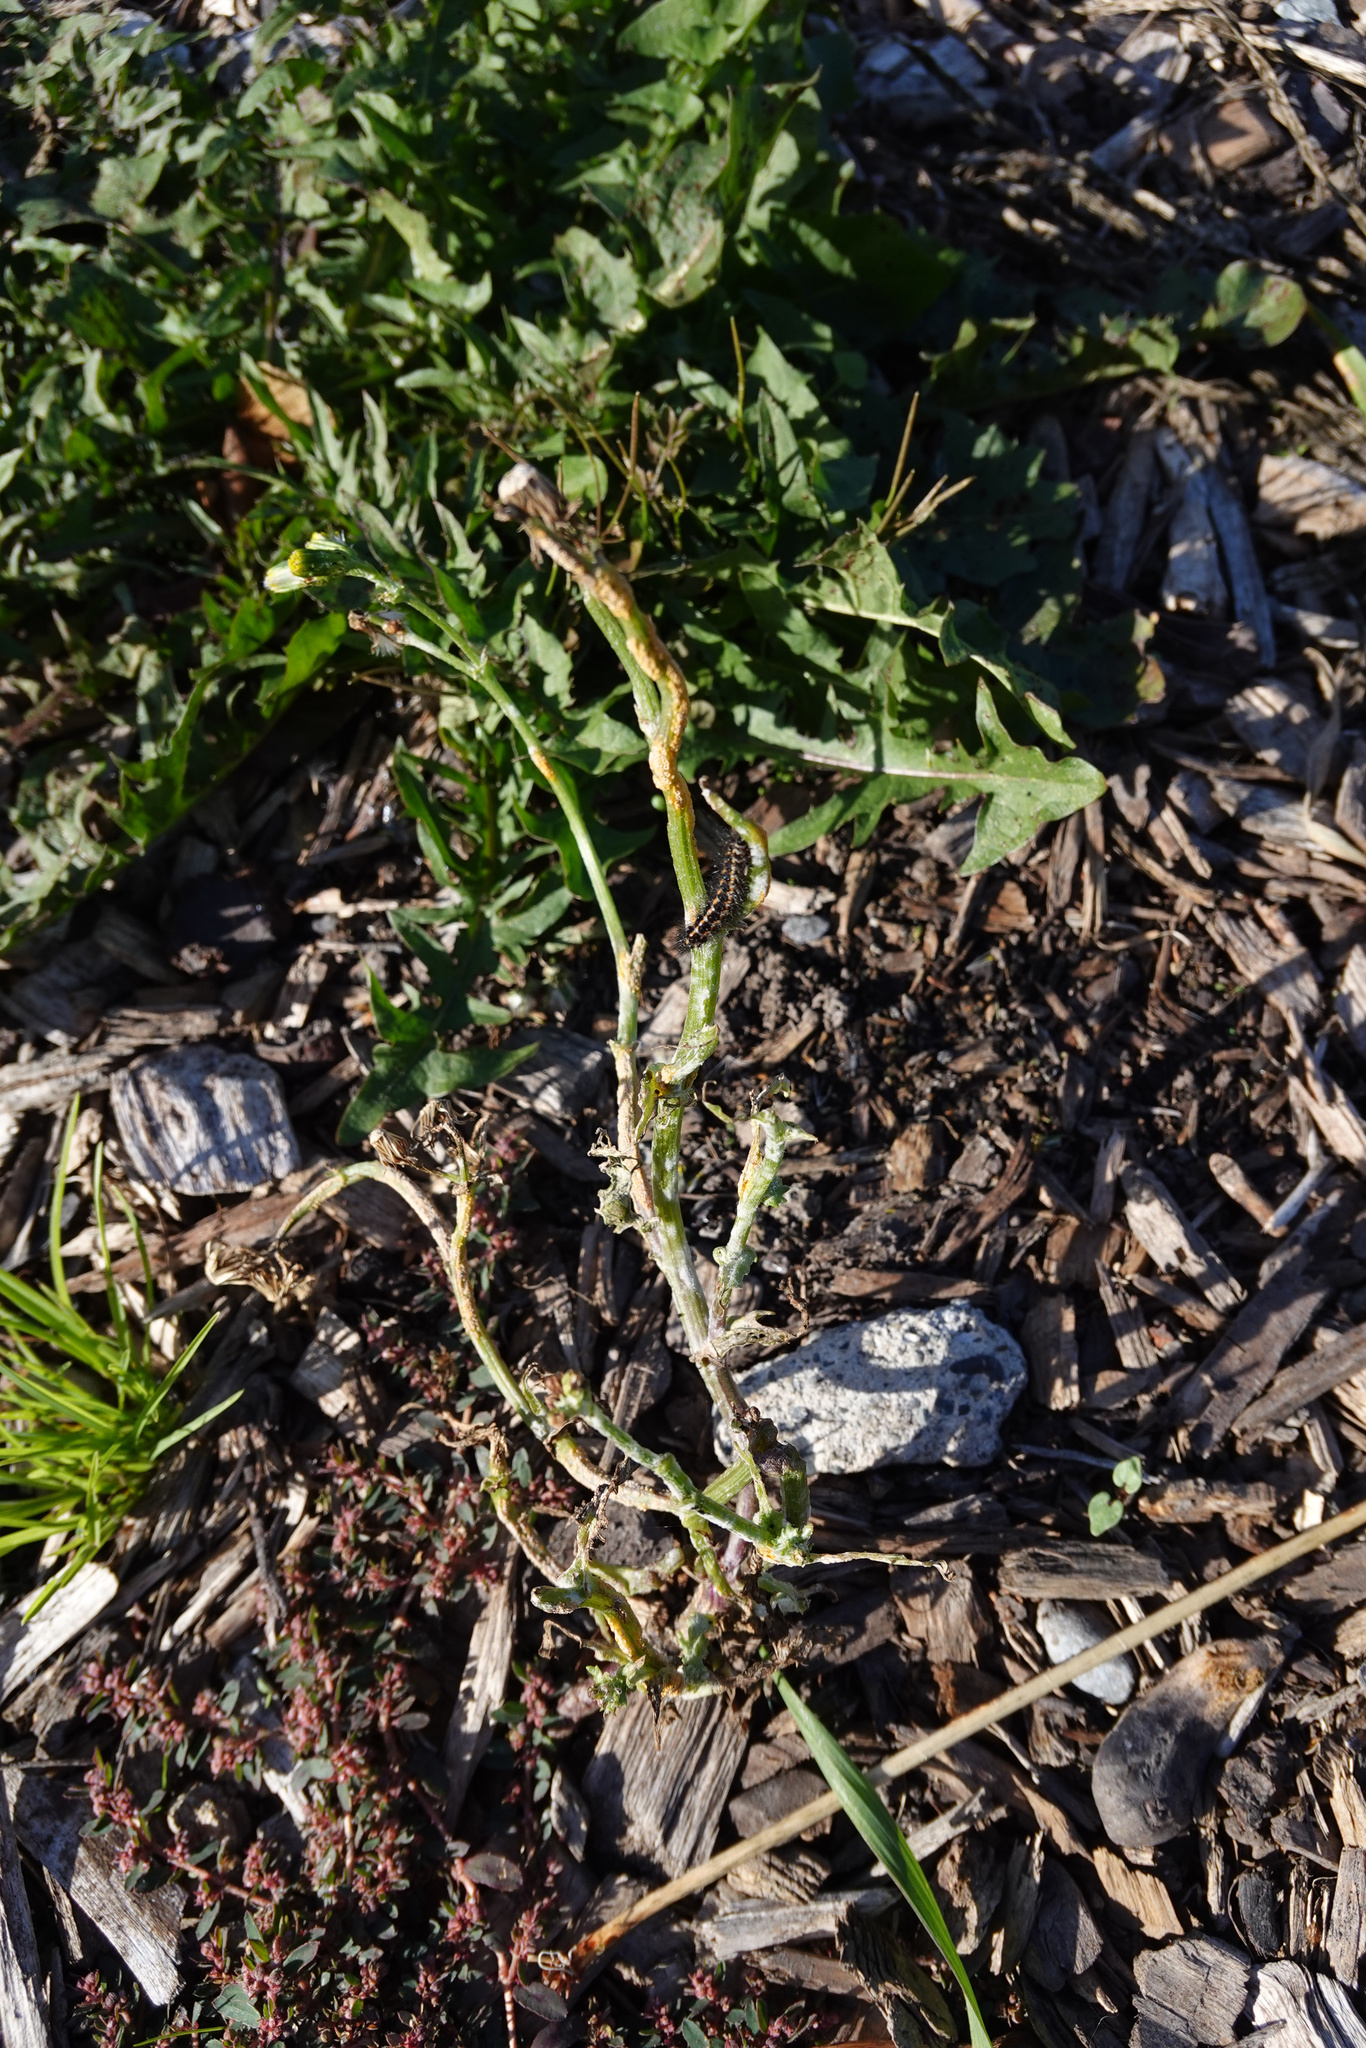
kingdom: Plantae
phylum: Tracheophyta
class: Magnoliopsida
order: Asterales
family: Asteraceae
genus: Senecio
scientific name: Senecio vulgaris
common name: Old-man-in-the-spring
